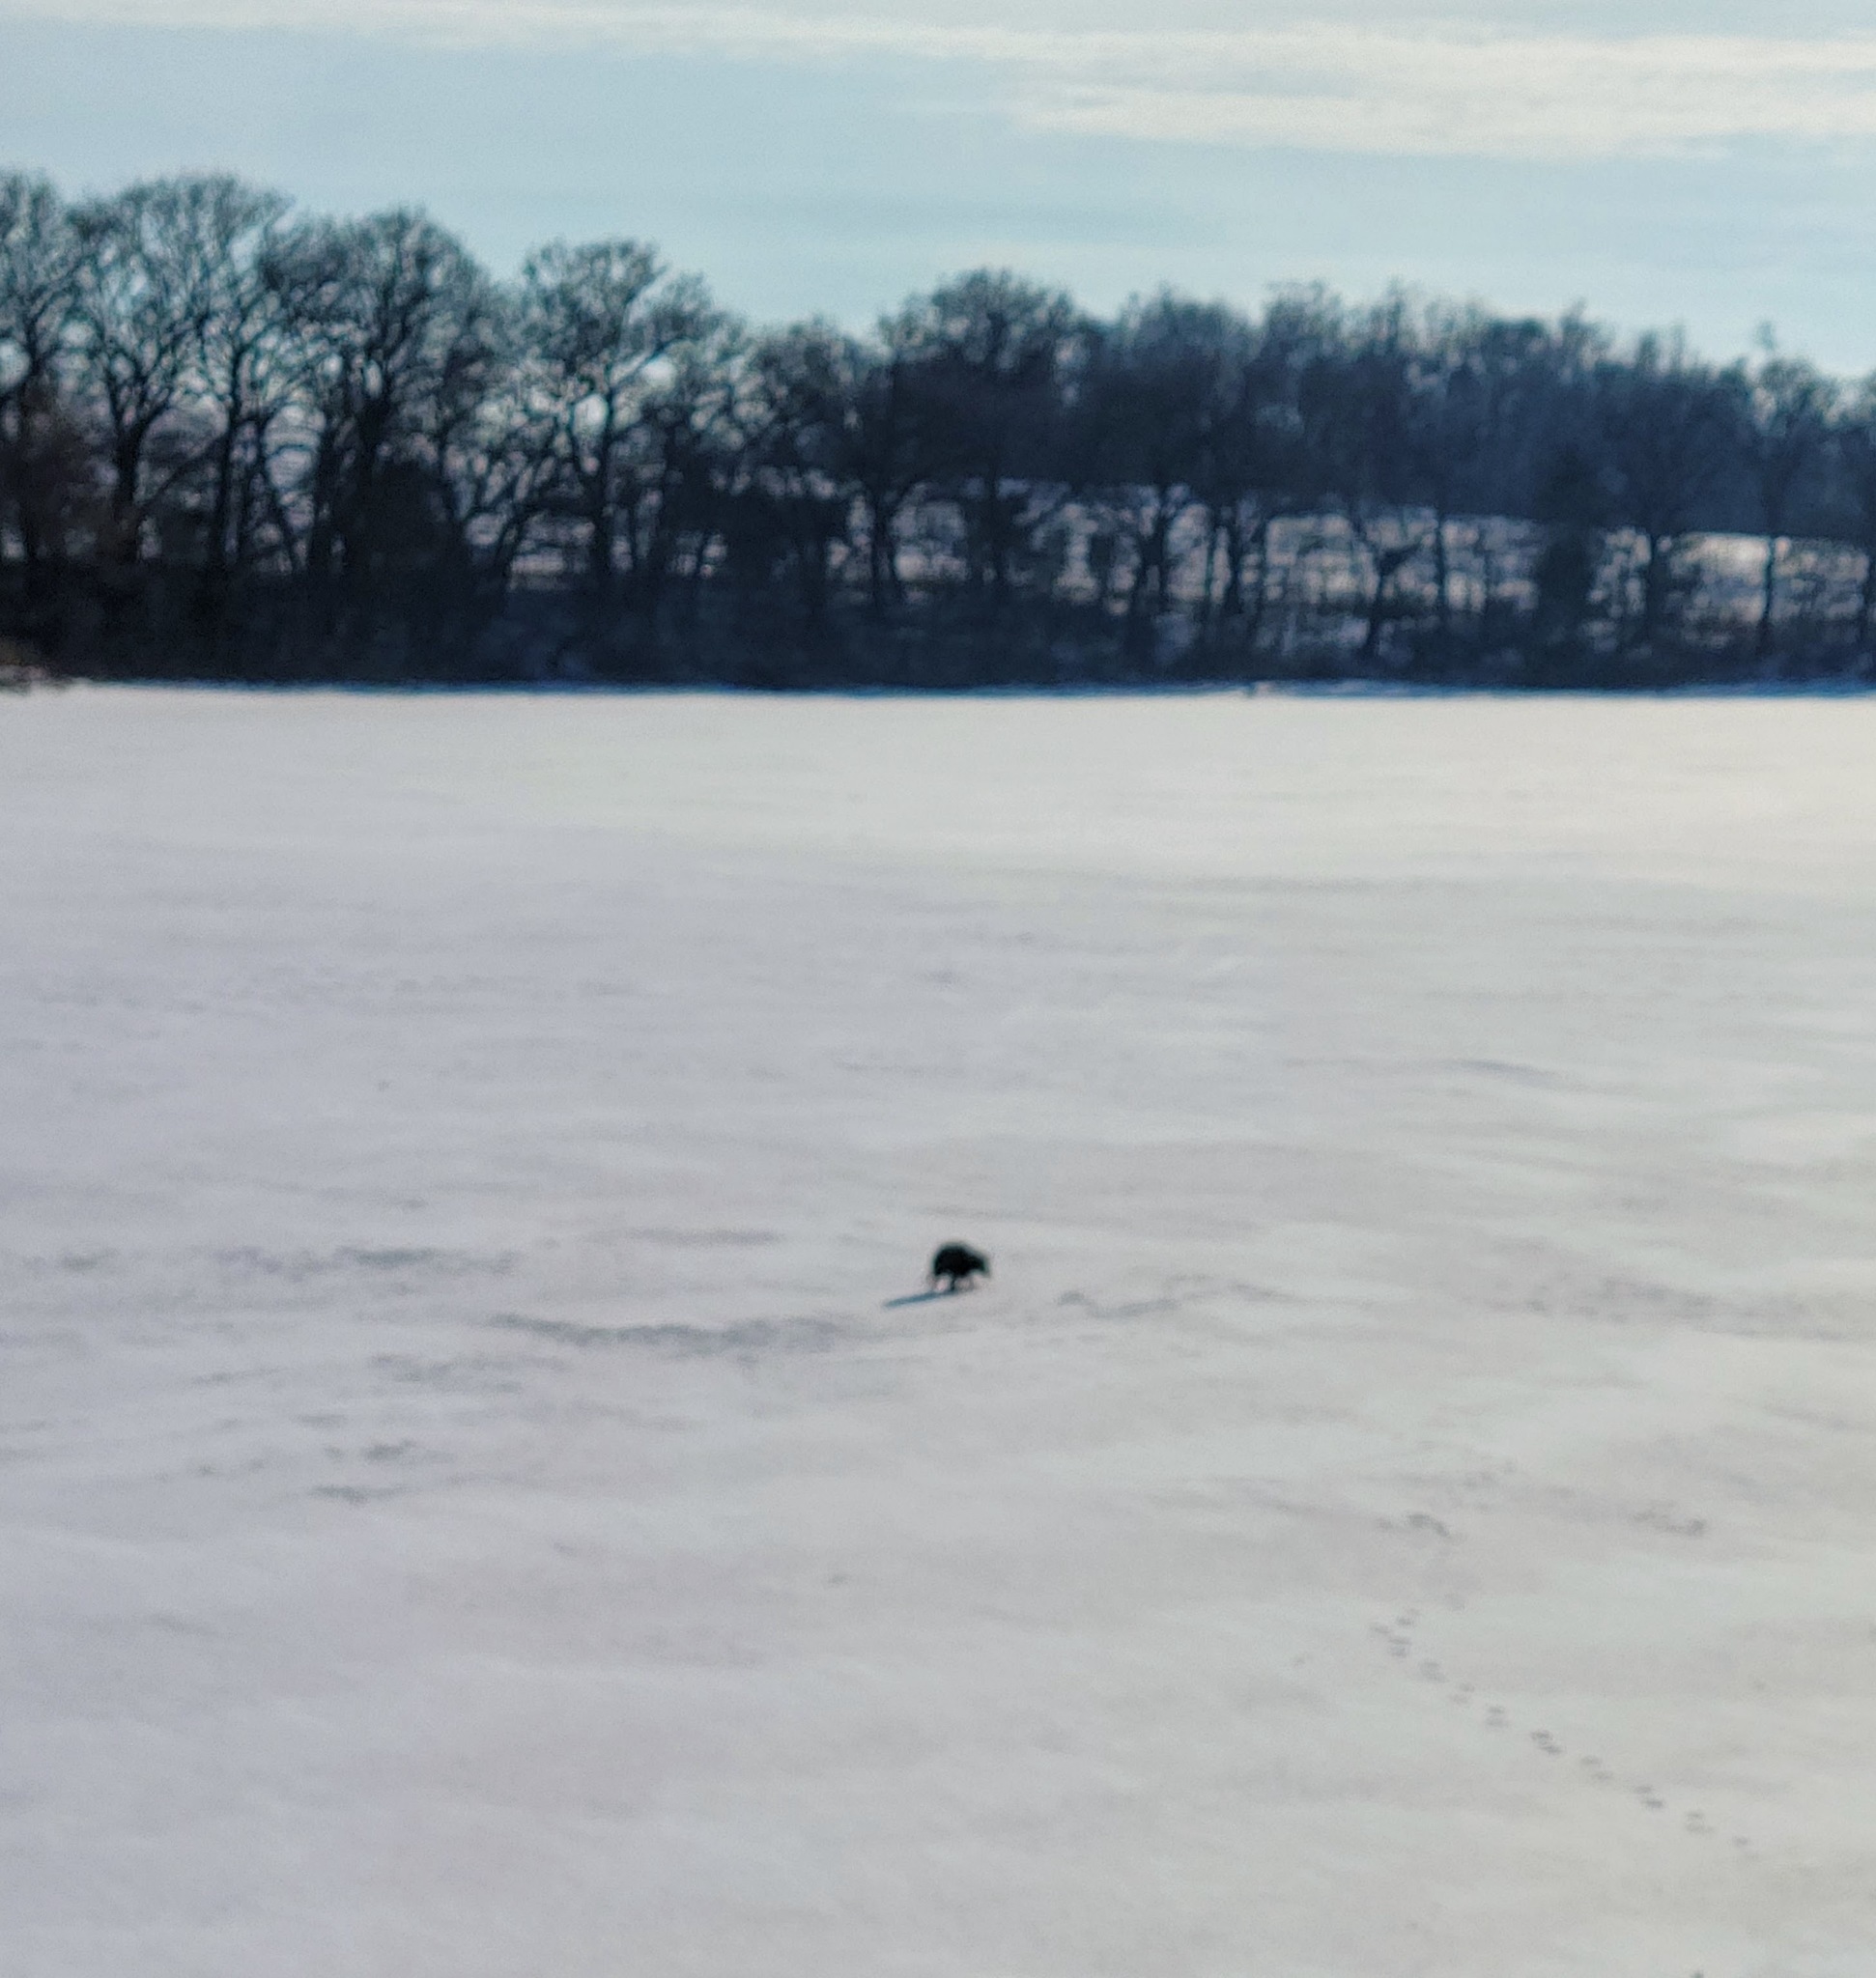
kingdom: Animalia
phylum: Chordata
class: Mammalia
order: Didelphimorphia
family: Didelphidae
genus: Didelphis
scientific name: Didelphis virginiana
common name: Virginia opossum
